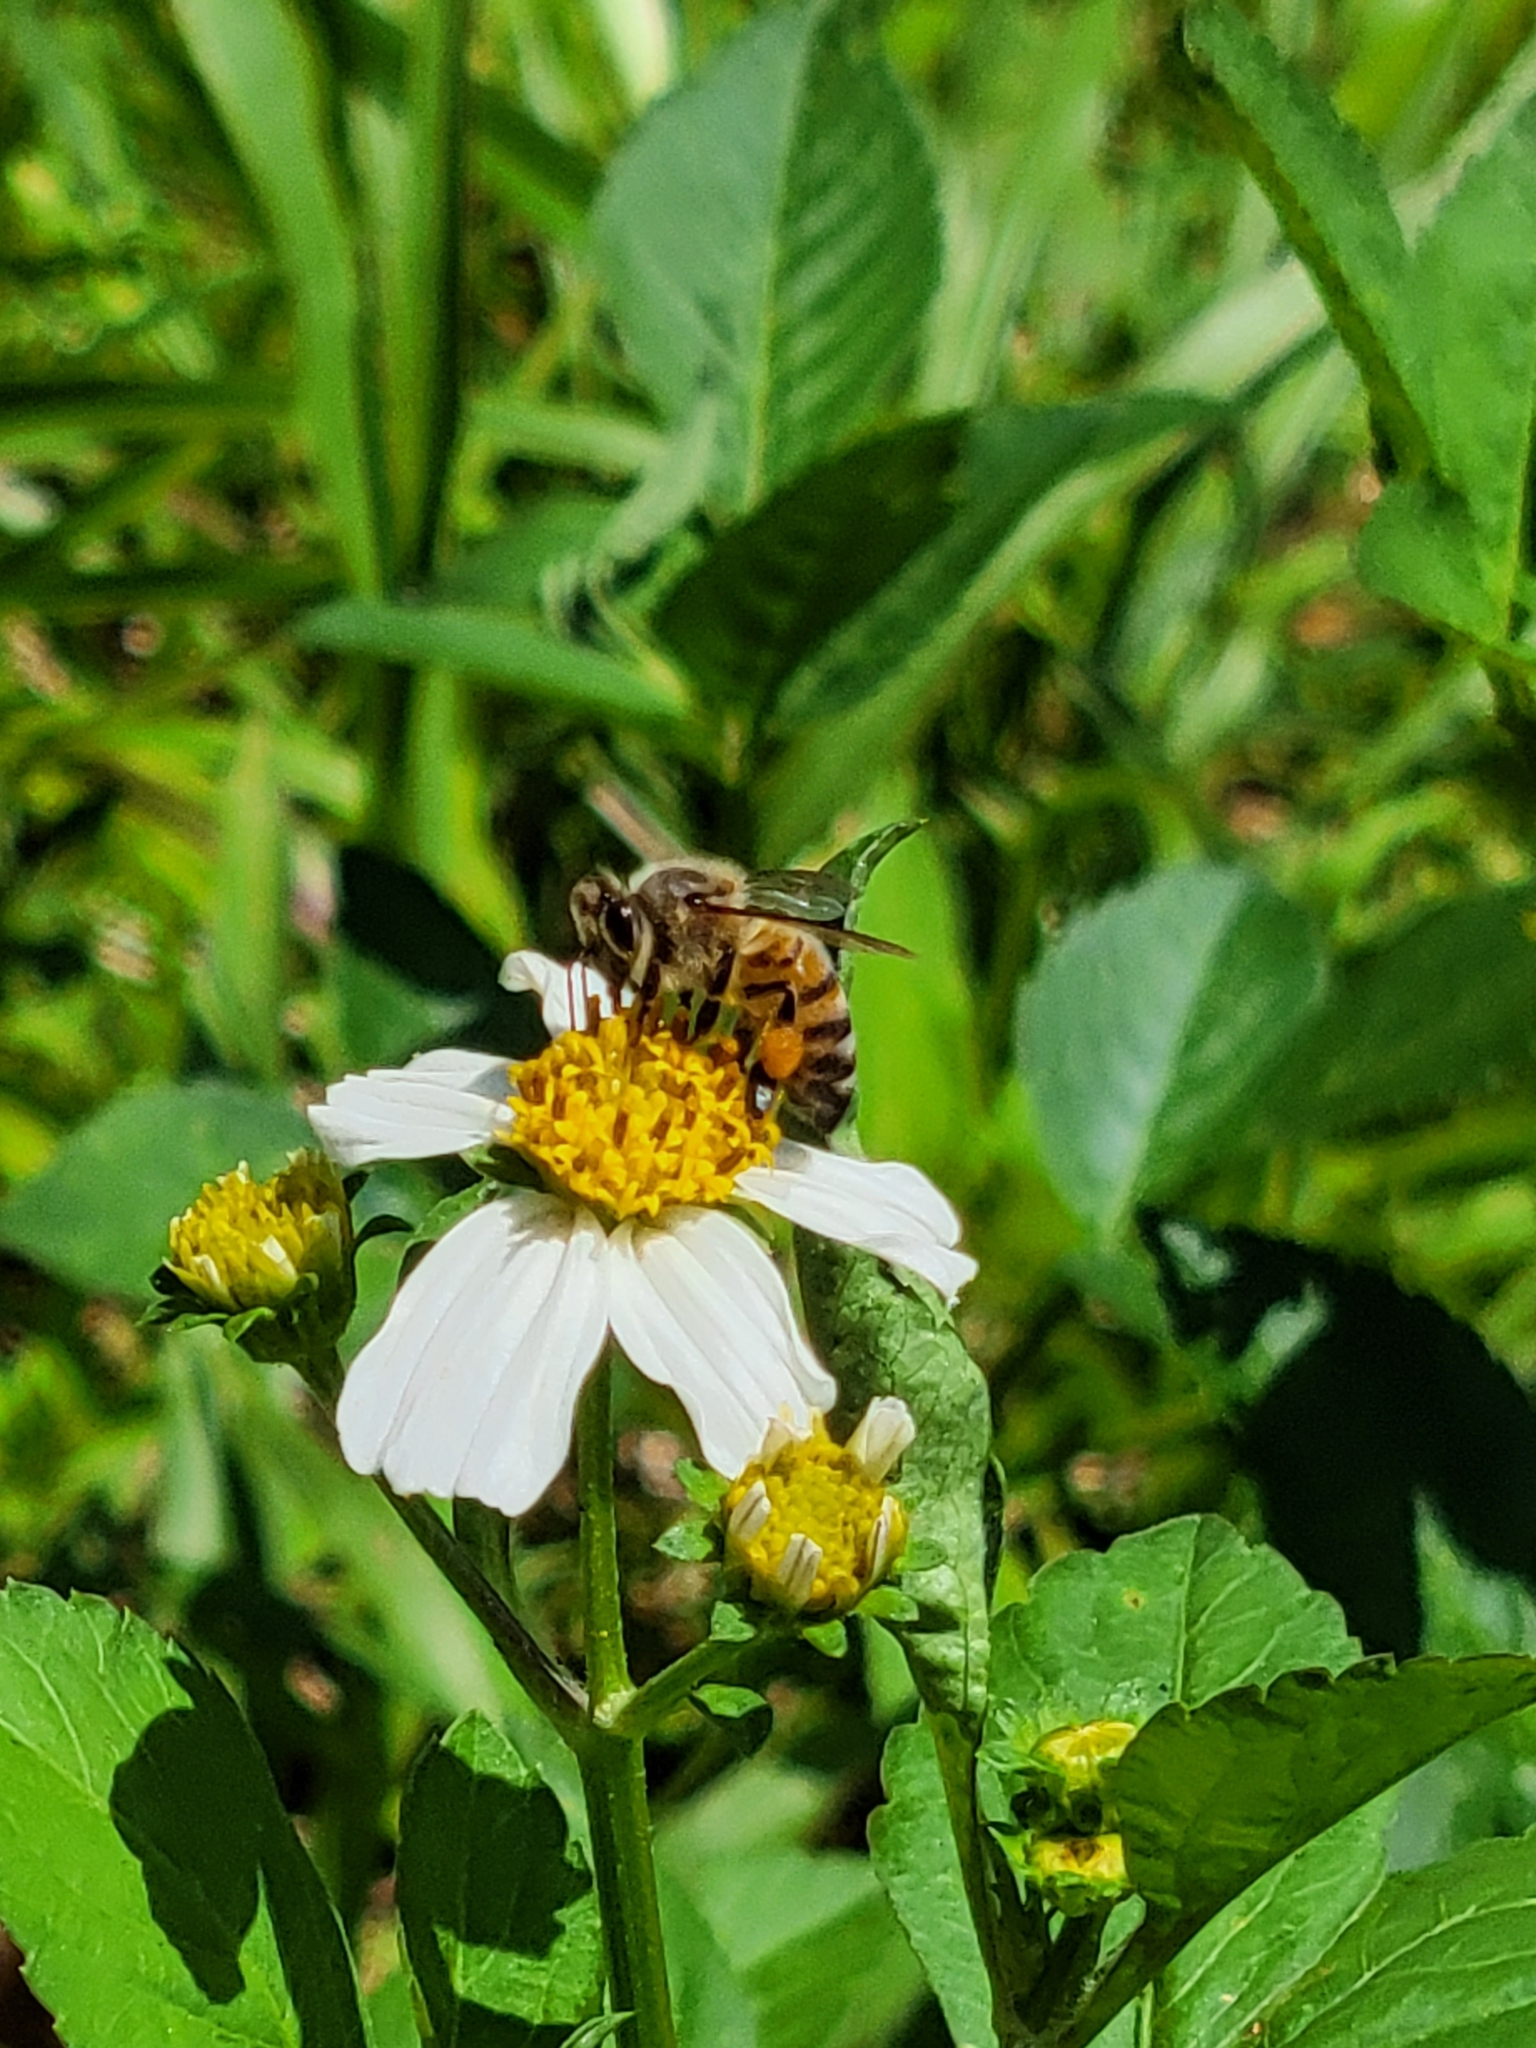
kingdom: Animalia
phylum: Arthropoda
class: Insecta
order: Hymenoptera
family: Apidae
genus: Apis
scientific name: Apis mellifera
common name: Honey bee
